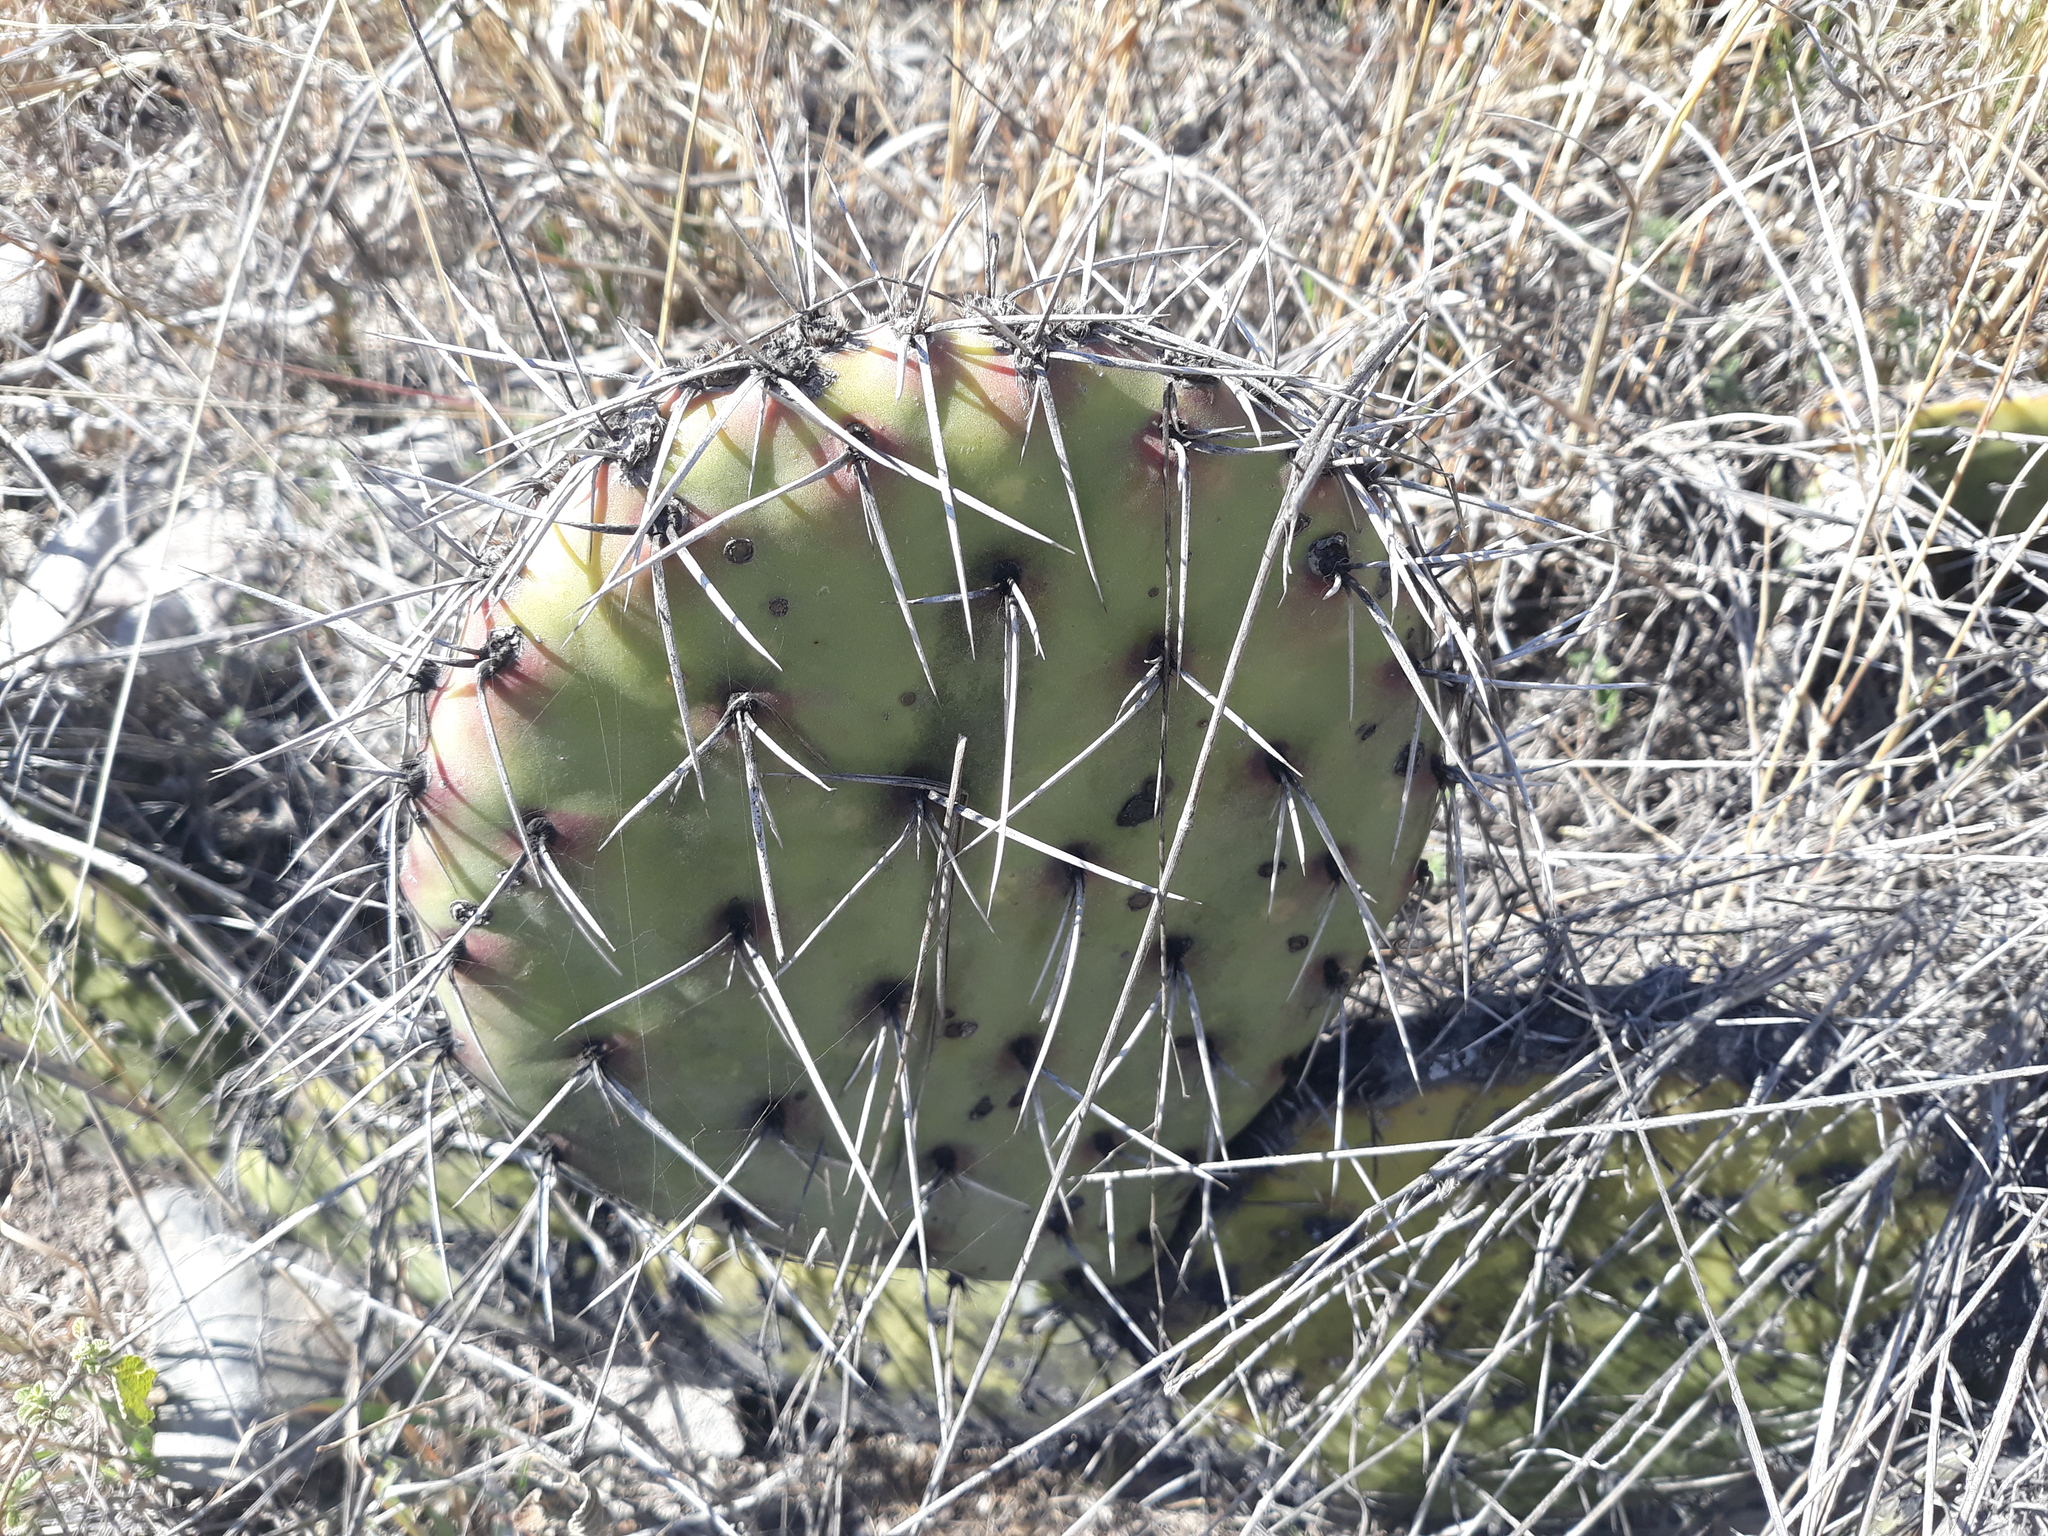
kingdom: Plantae
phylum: Tracheophyta
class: Magnoliopsida
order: Caryophyllales
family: Cactaceae
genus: Opuntia
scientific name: Opuntia stenopetala
